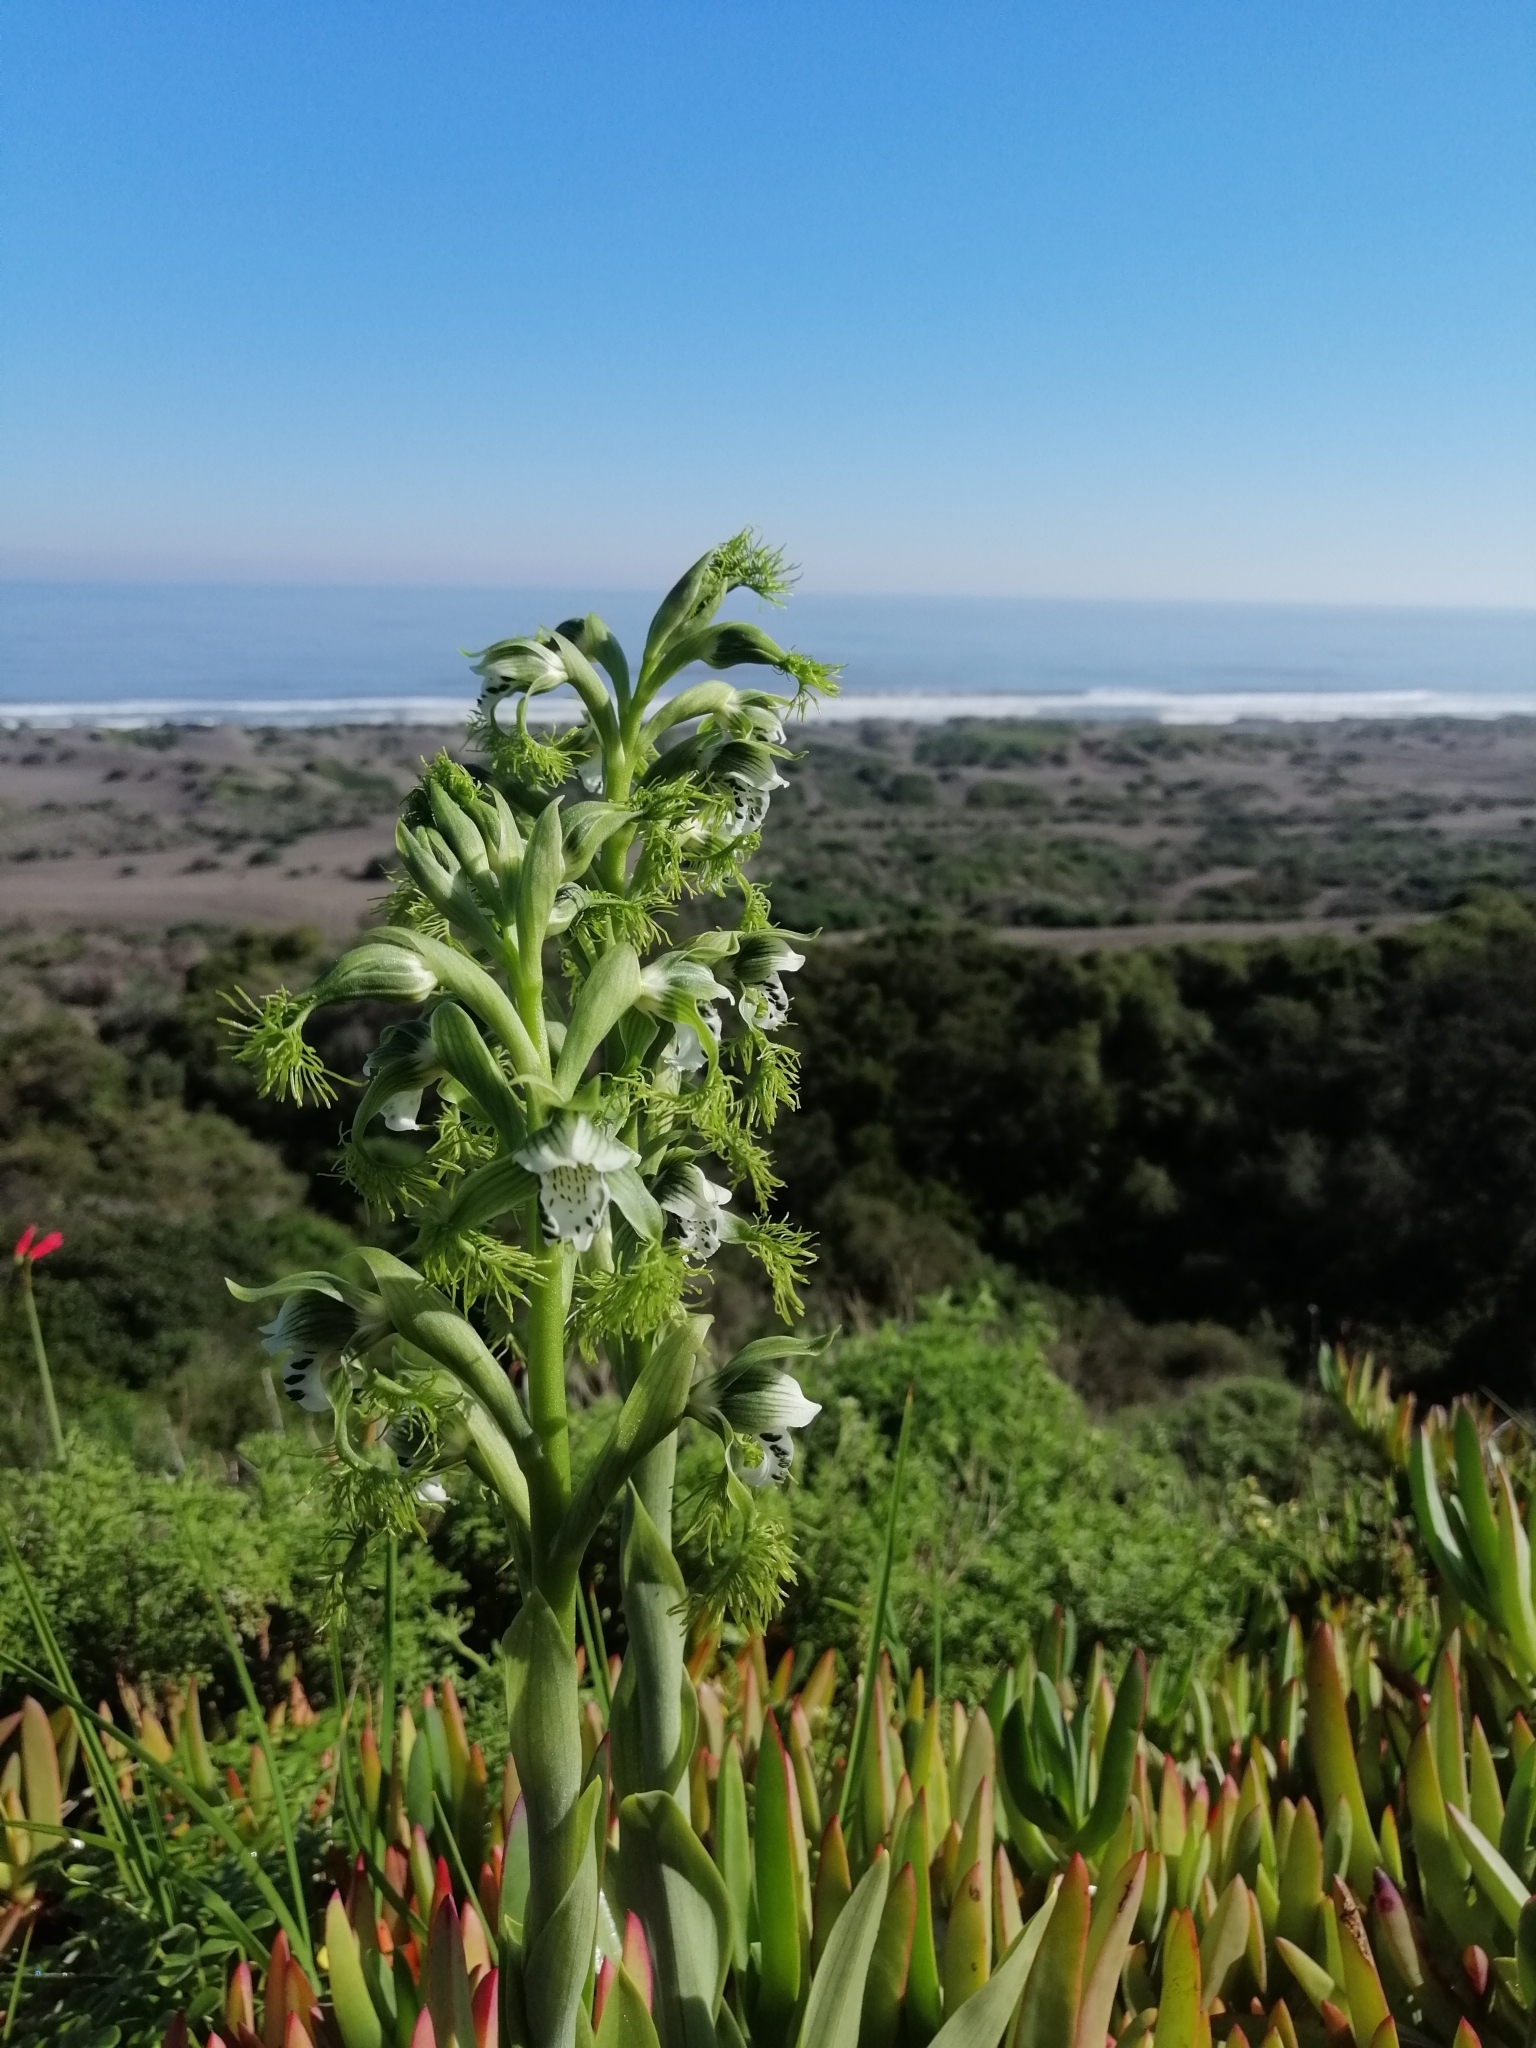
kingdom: Plantae
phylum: Tracheophyta
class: Liliopsida
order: Asparagales
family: Orchidaceae
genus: Bipinnula
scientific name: Bipinnula fimbriata
